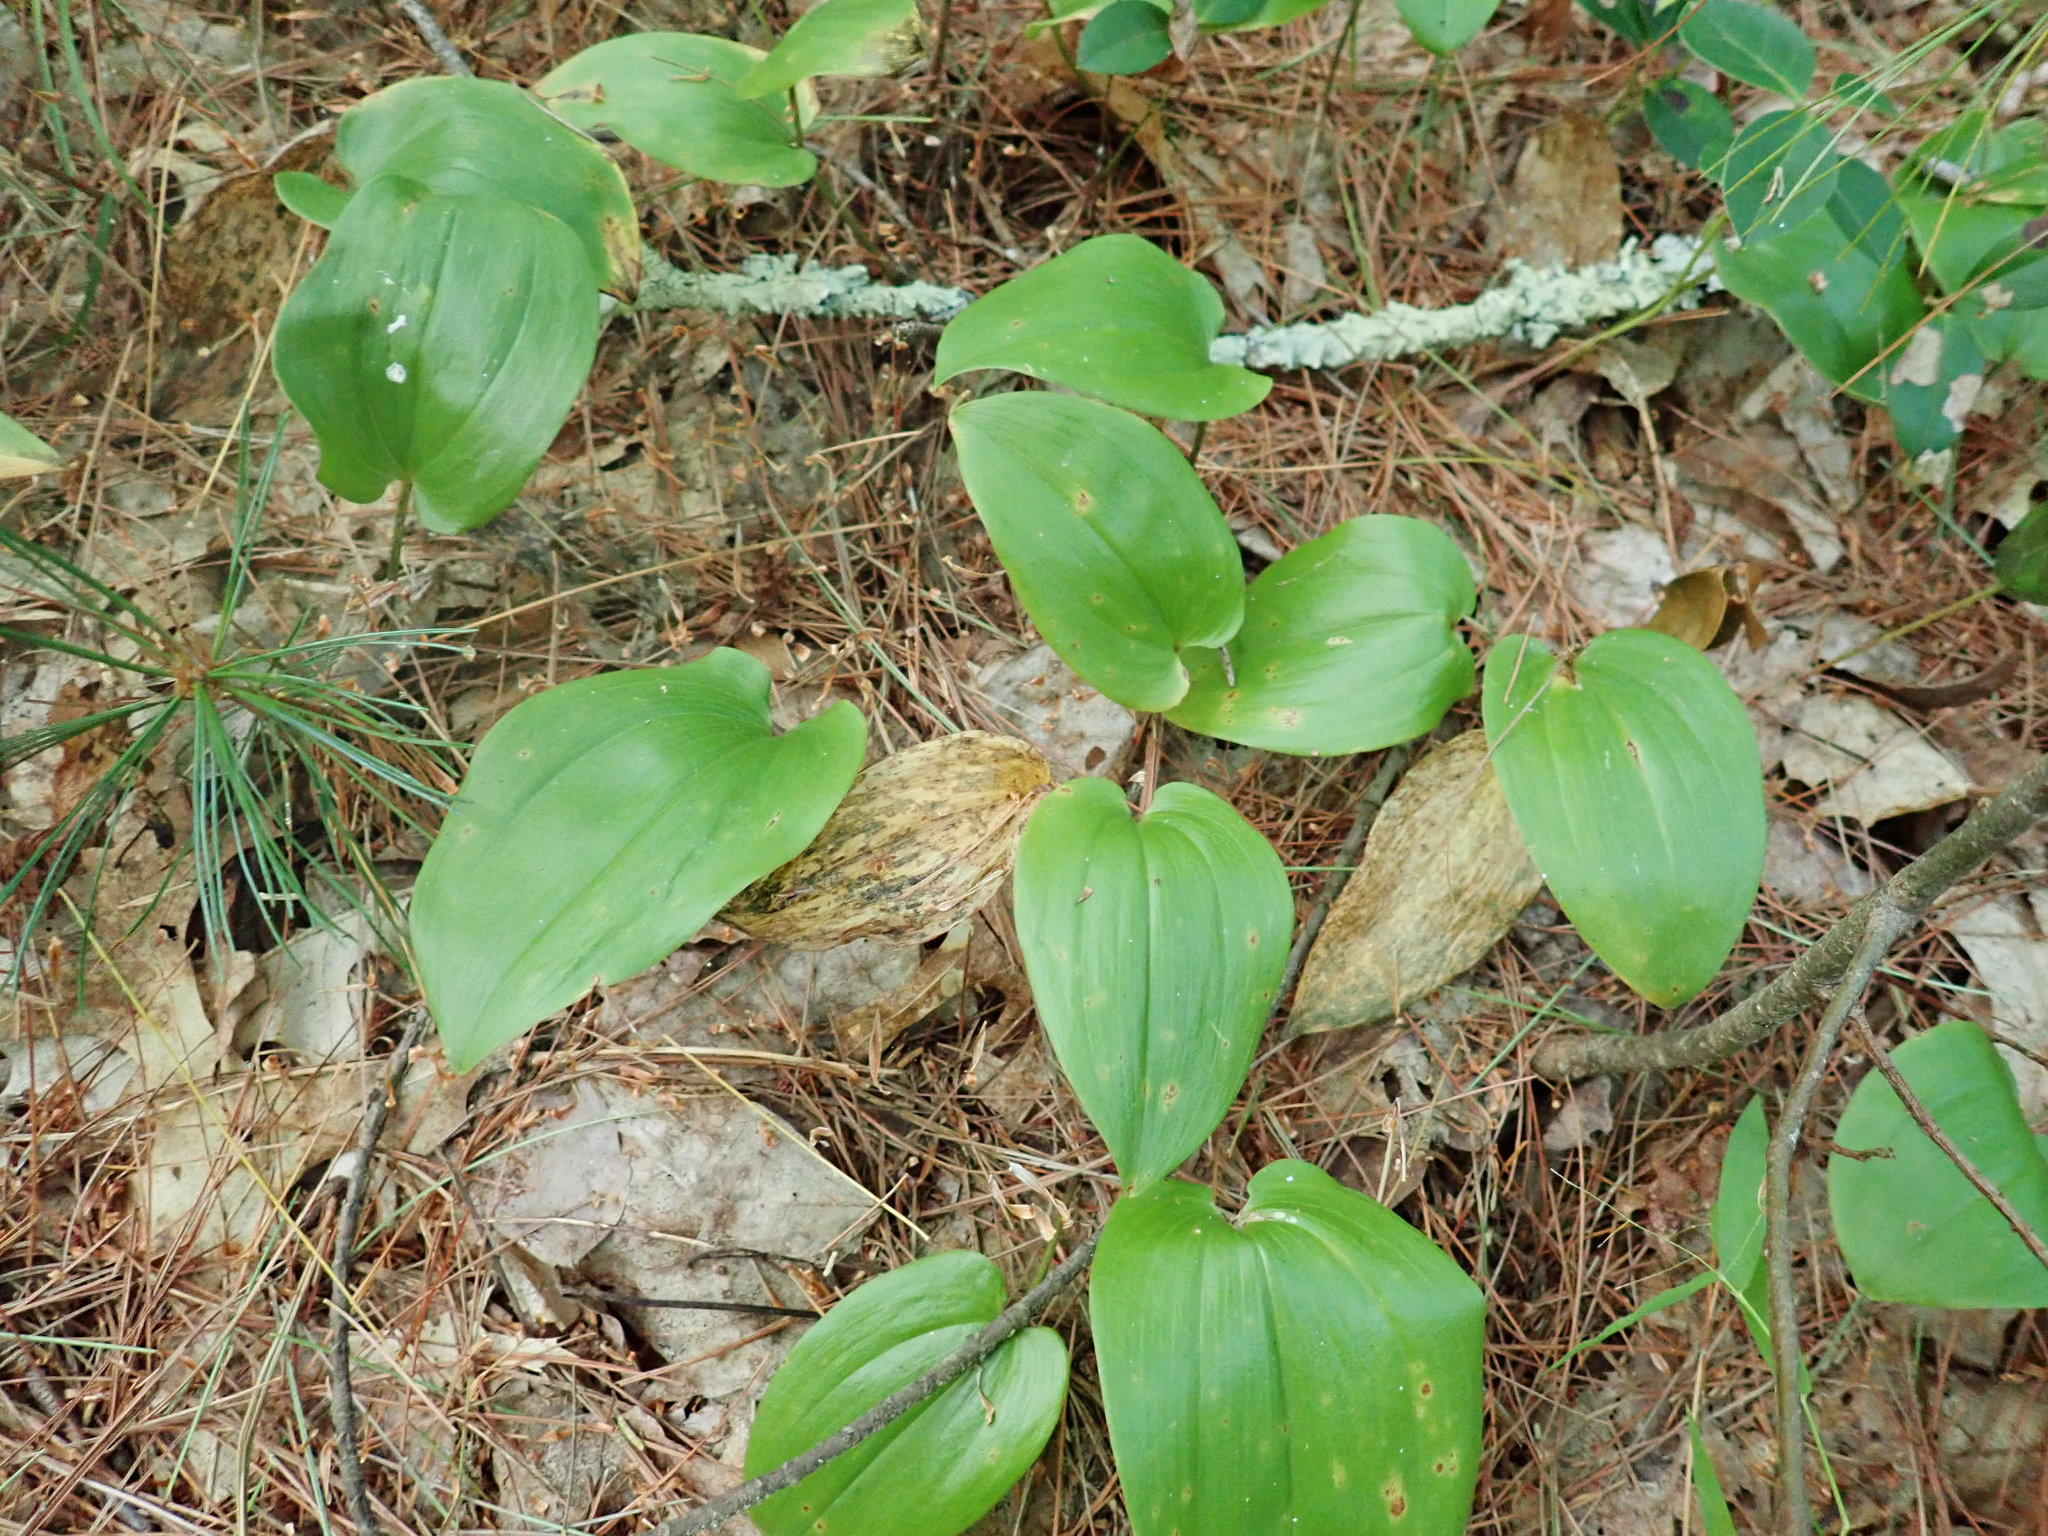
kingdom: Plantae
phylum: Tracheophyta
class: Liliopsida
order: Asparagales
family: Asparagaceae
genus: Maianthemum
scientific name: Maianthemum canadense
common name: False lily-of-the-valley
